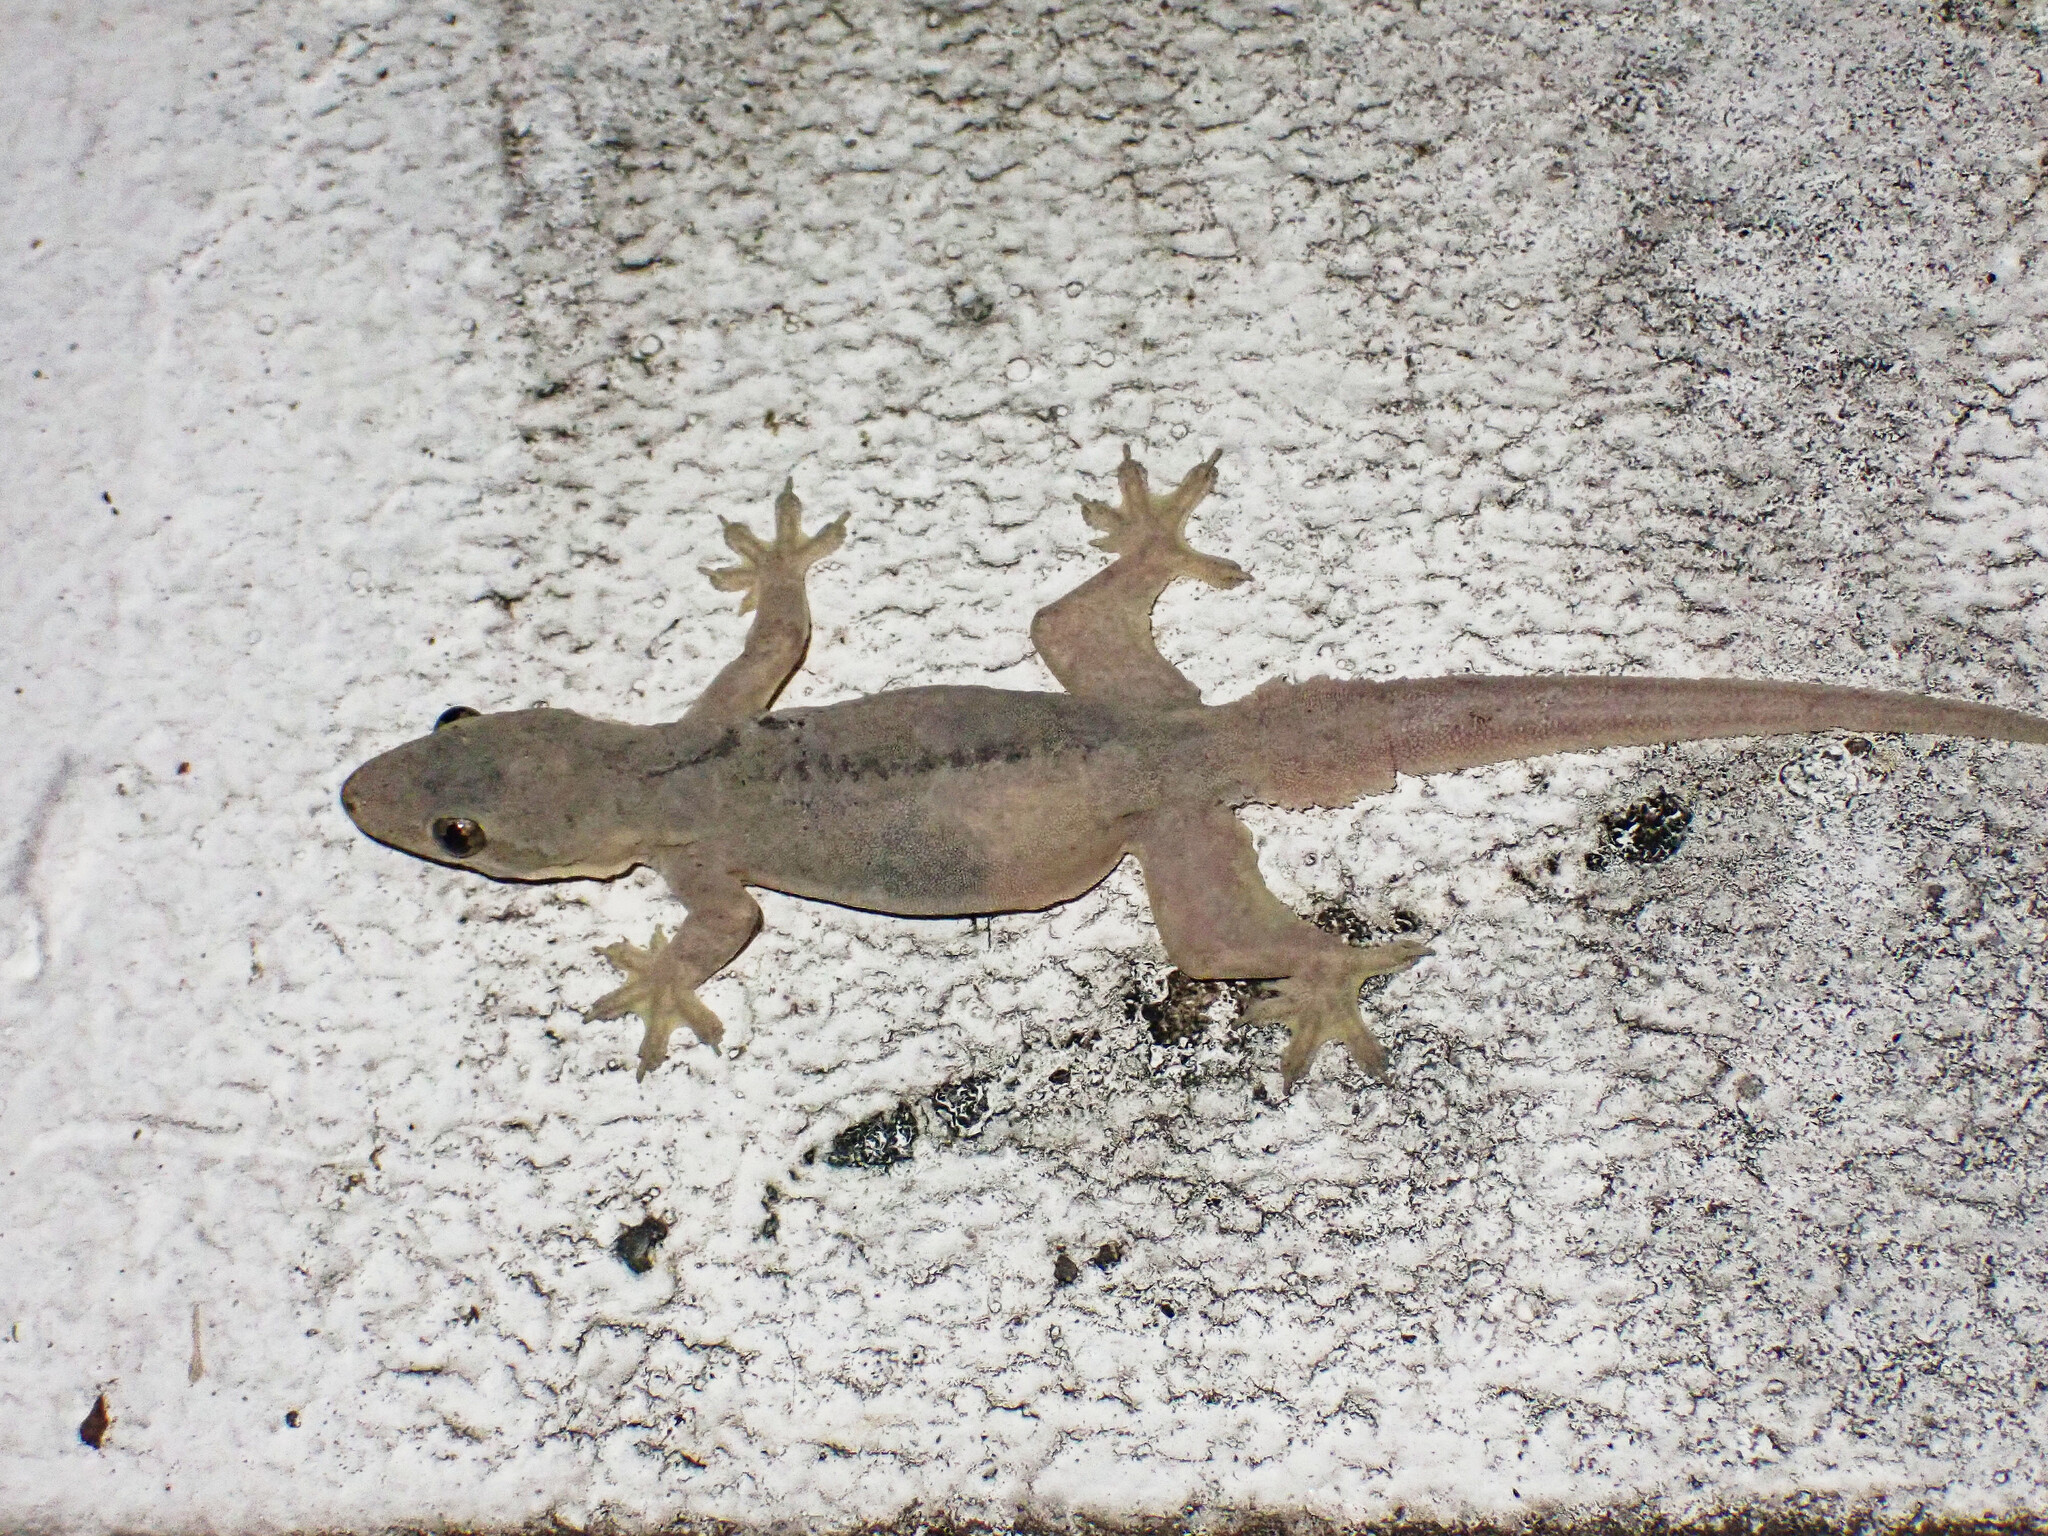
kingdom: Animalia
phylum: Chordata
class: Squamata
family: Gekkonidae
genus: Hemidactylus
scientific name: Hemidactylus platyurus
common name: Flat-tailed house gecko
